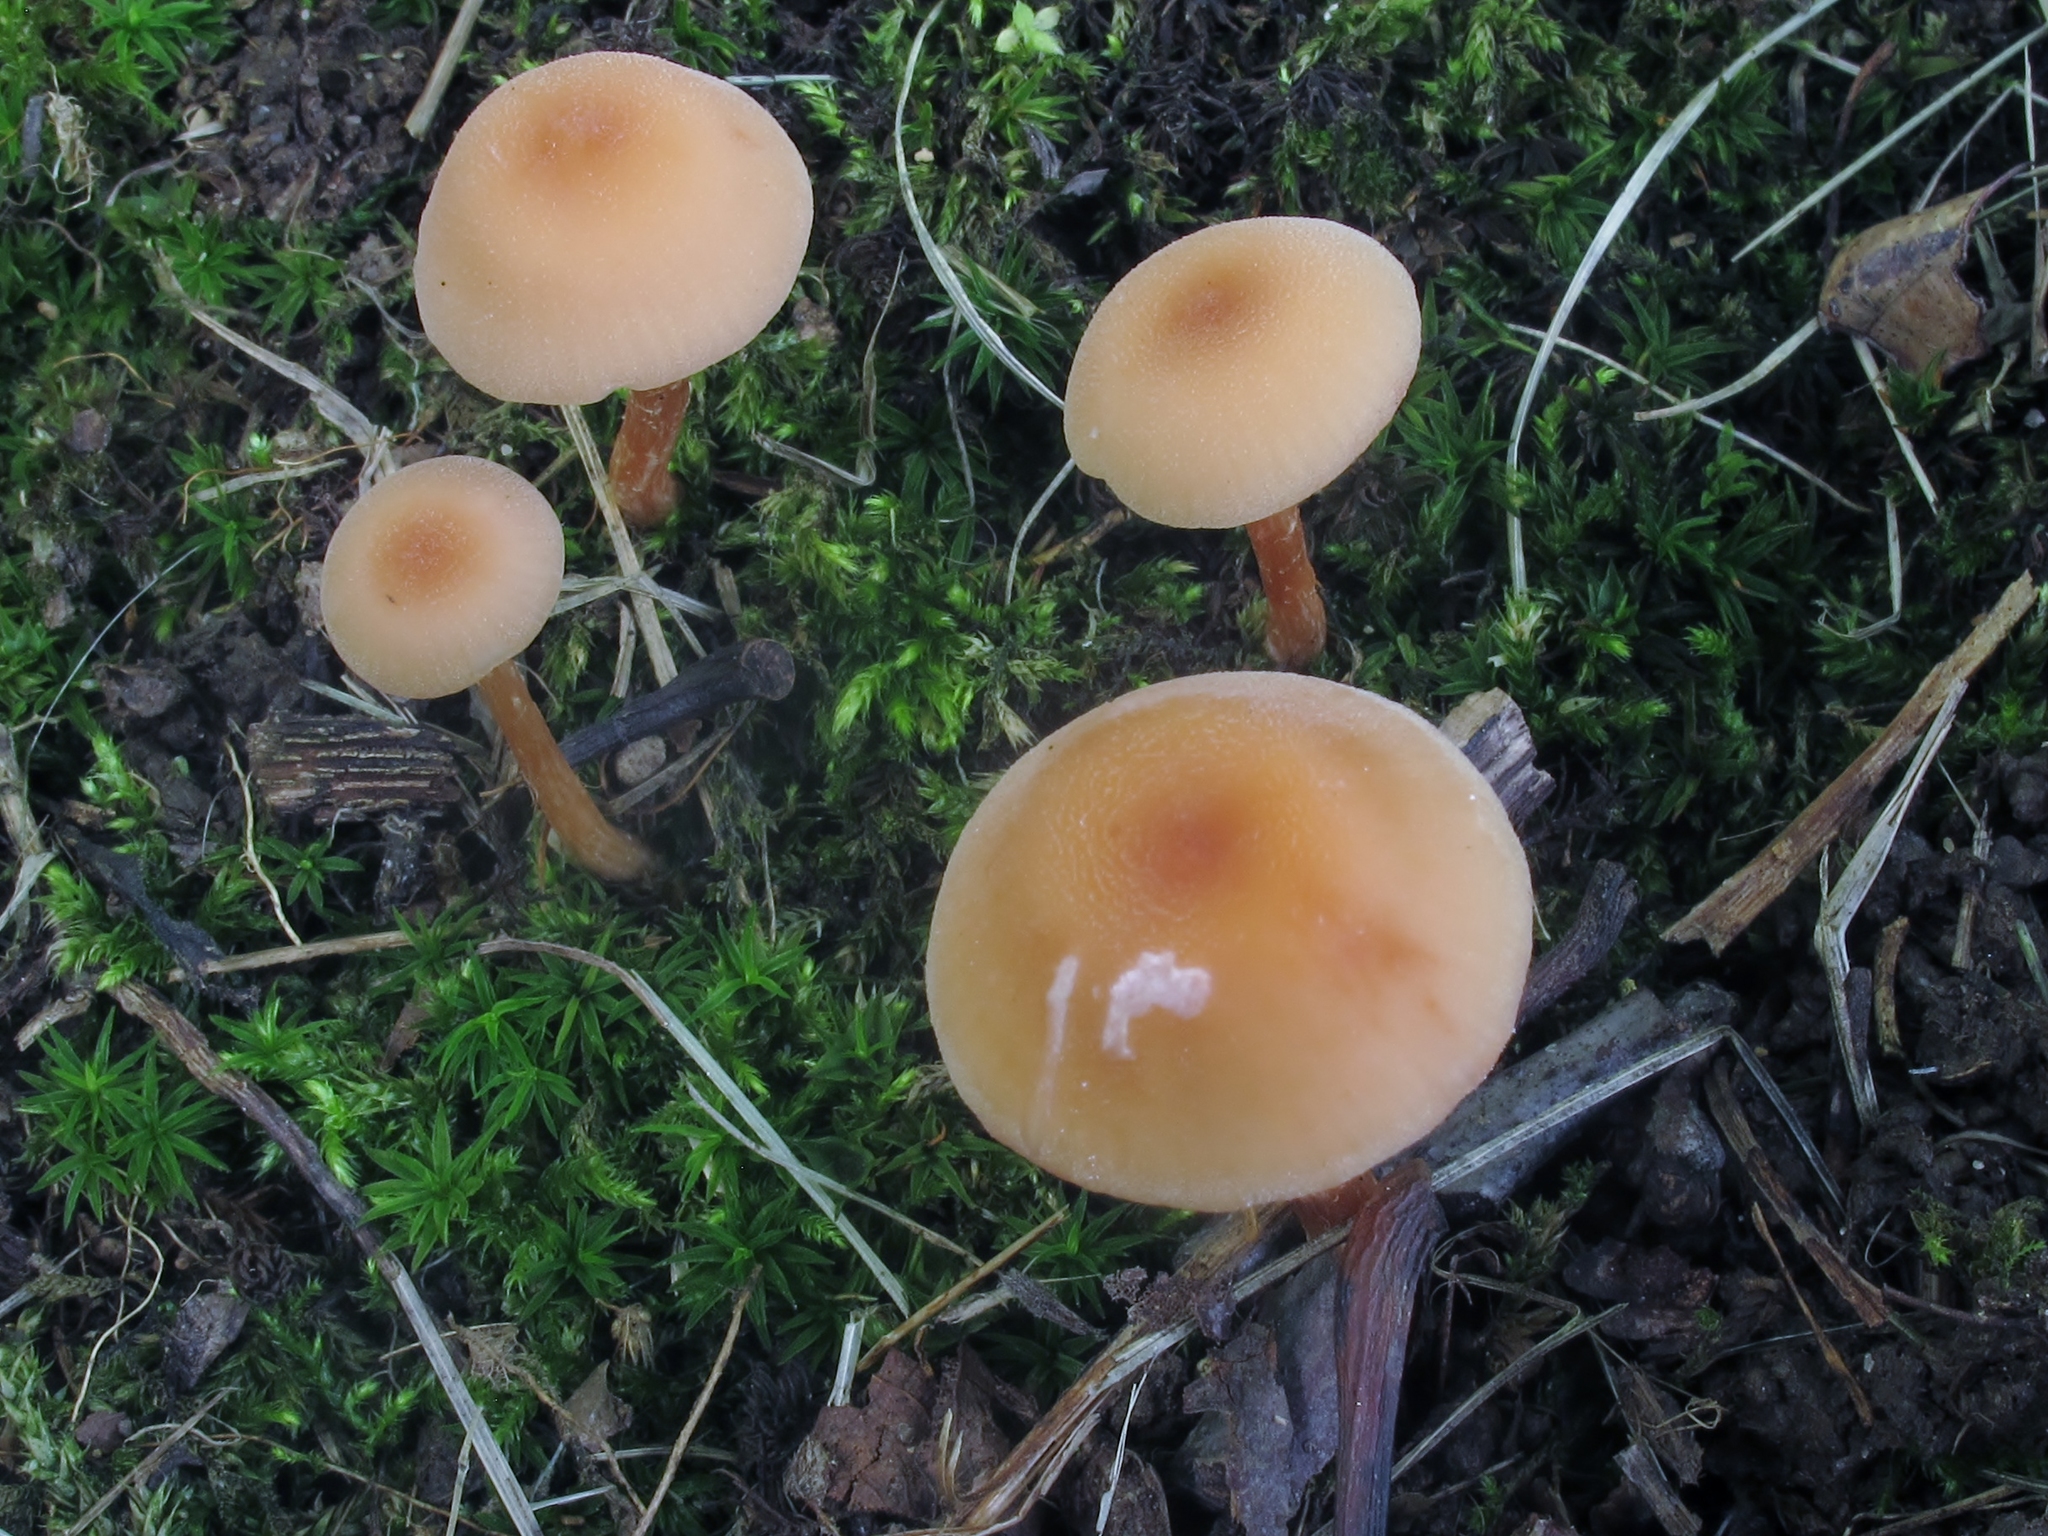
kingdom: Fungi
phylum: Basidiomycota
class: Agaricomycetes
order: Agaricales
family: Hydnangiaceae
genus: Laccaria
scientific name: Laccaria laccata
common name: Deceiver
